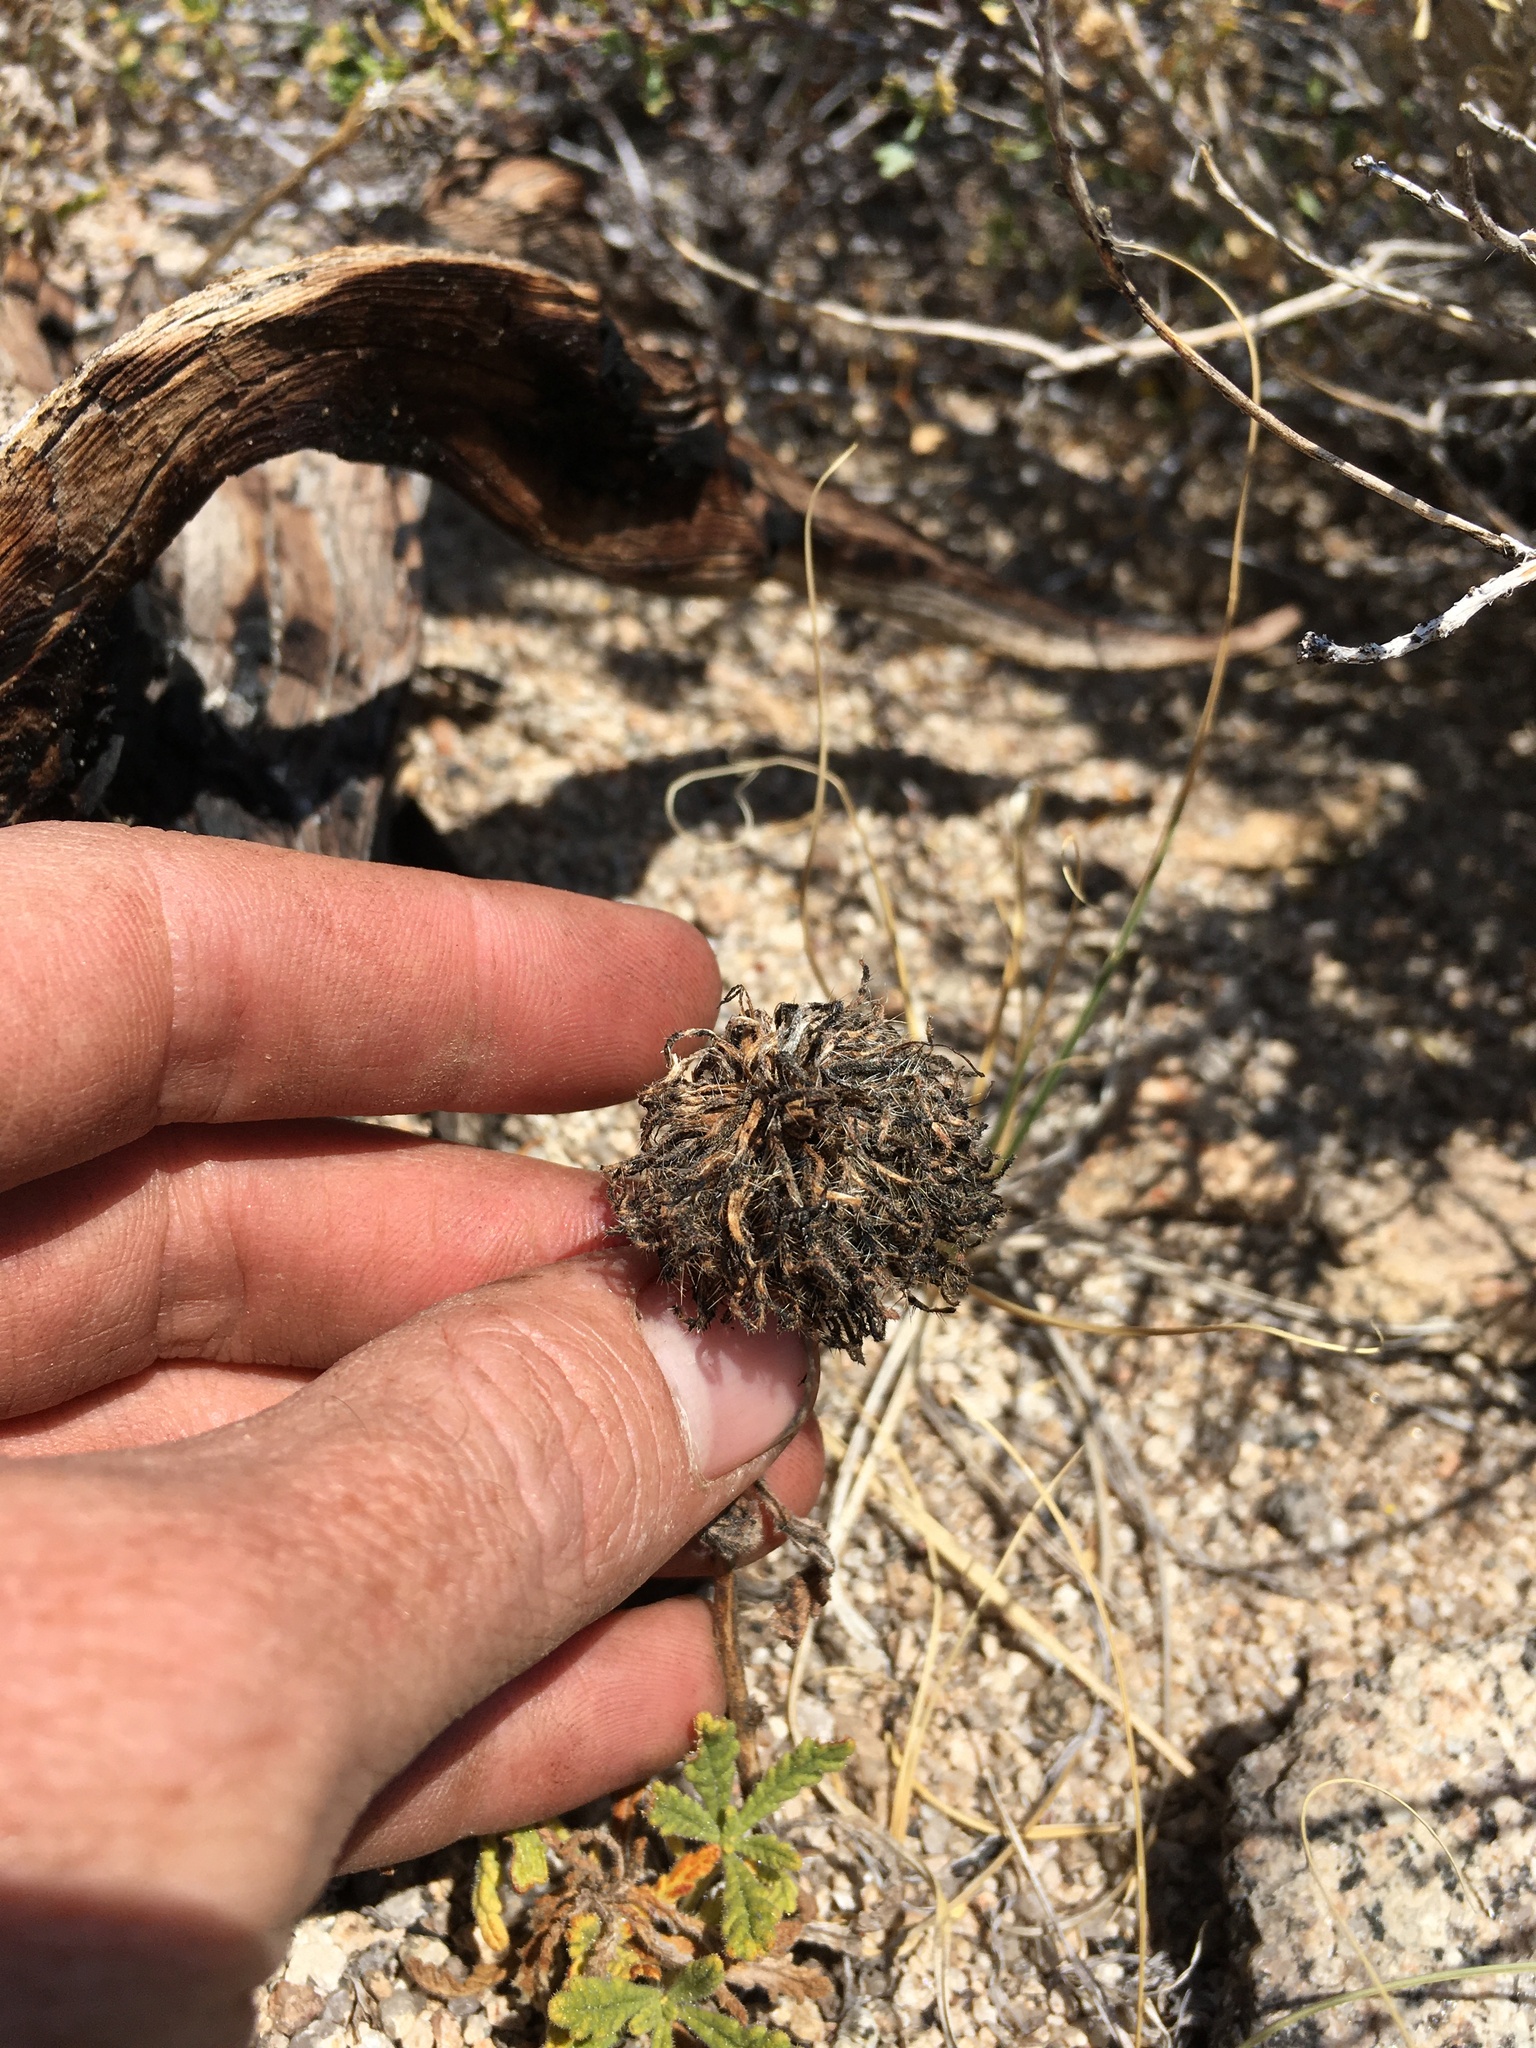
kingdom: Plantae
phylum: Tracheophyta
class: Magnoliopsida
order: Boraginales
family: Namaceae
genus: Nama
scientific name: Nama rothrockii
